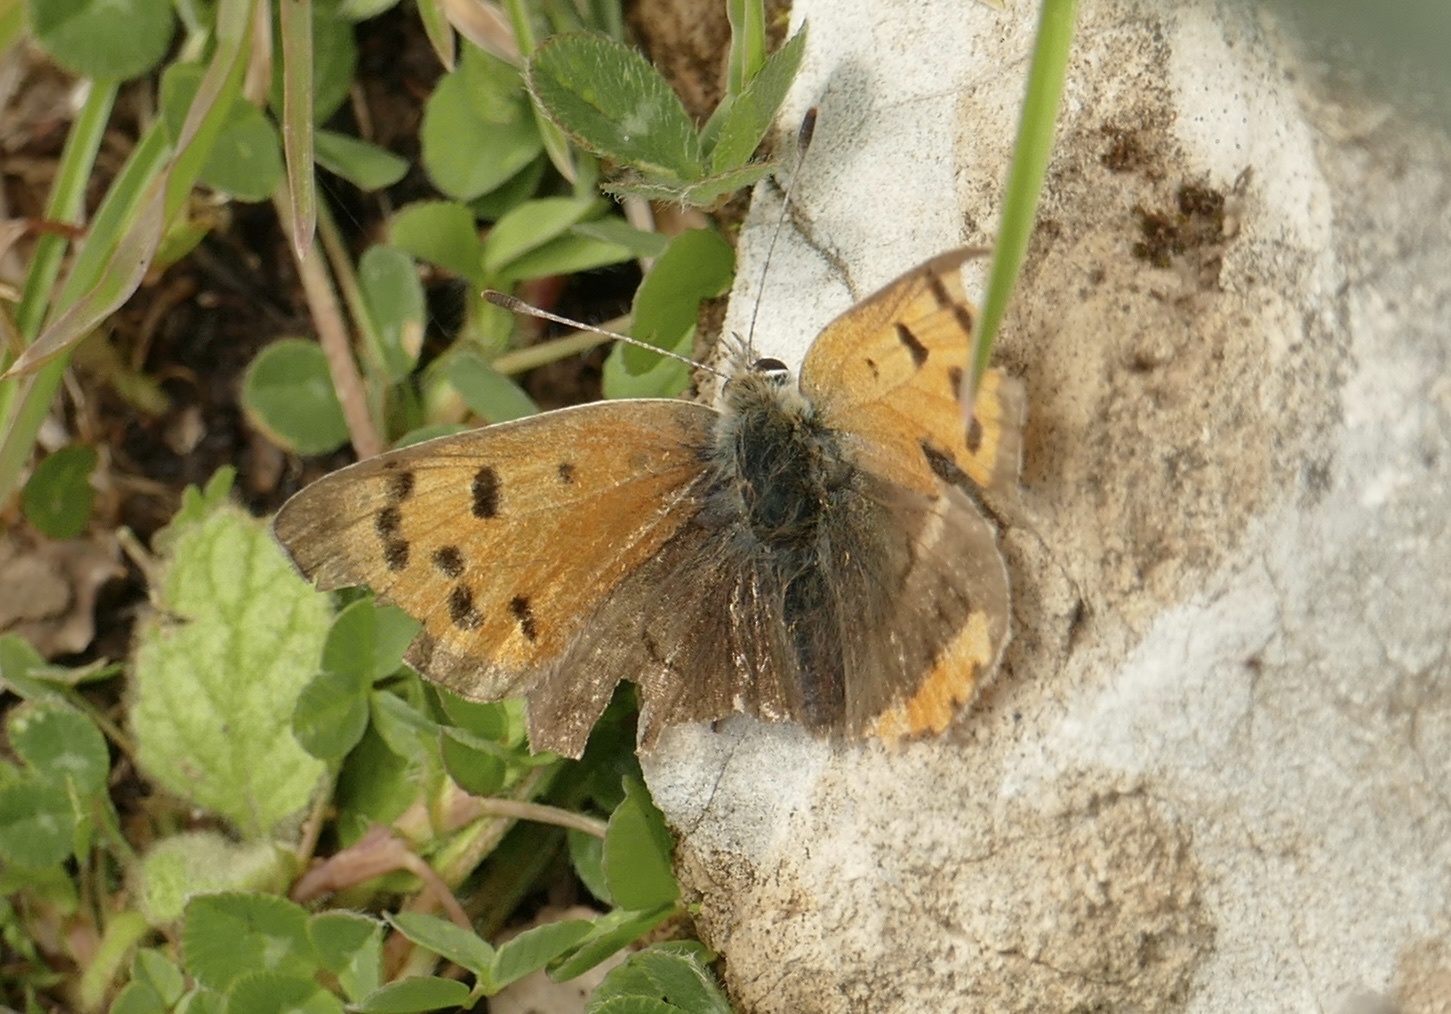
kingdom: Animalia
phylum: Arthropoda
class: Insecta
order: Lepidoptera
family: Lycaenidae
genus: Lycaena
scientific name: Lycaena phlaeas
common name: Small copper
